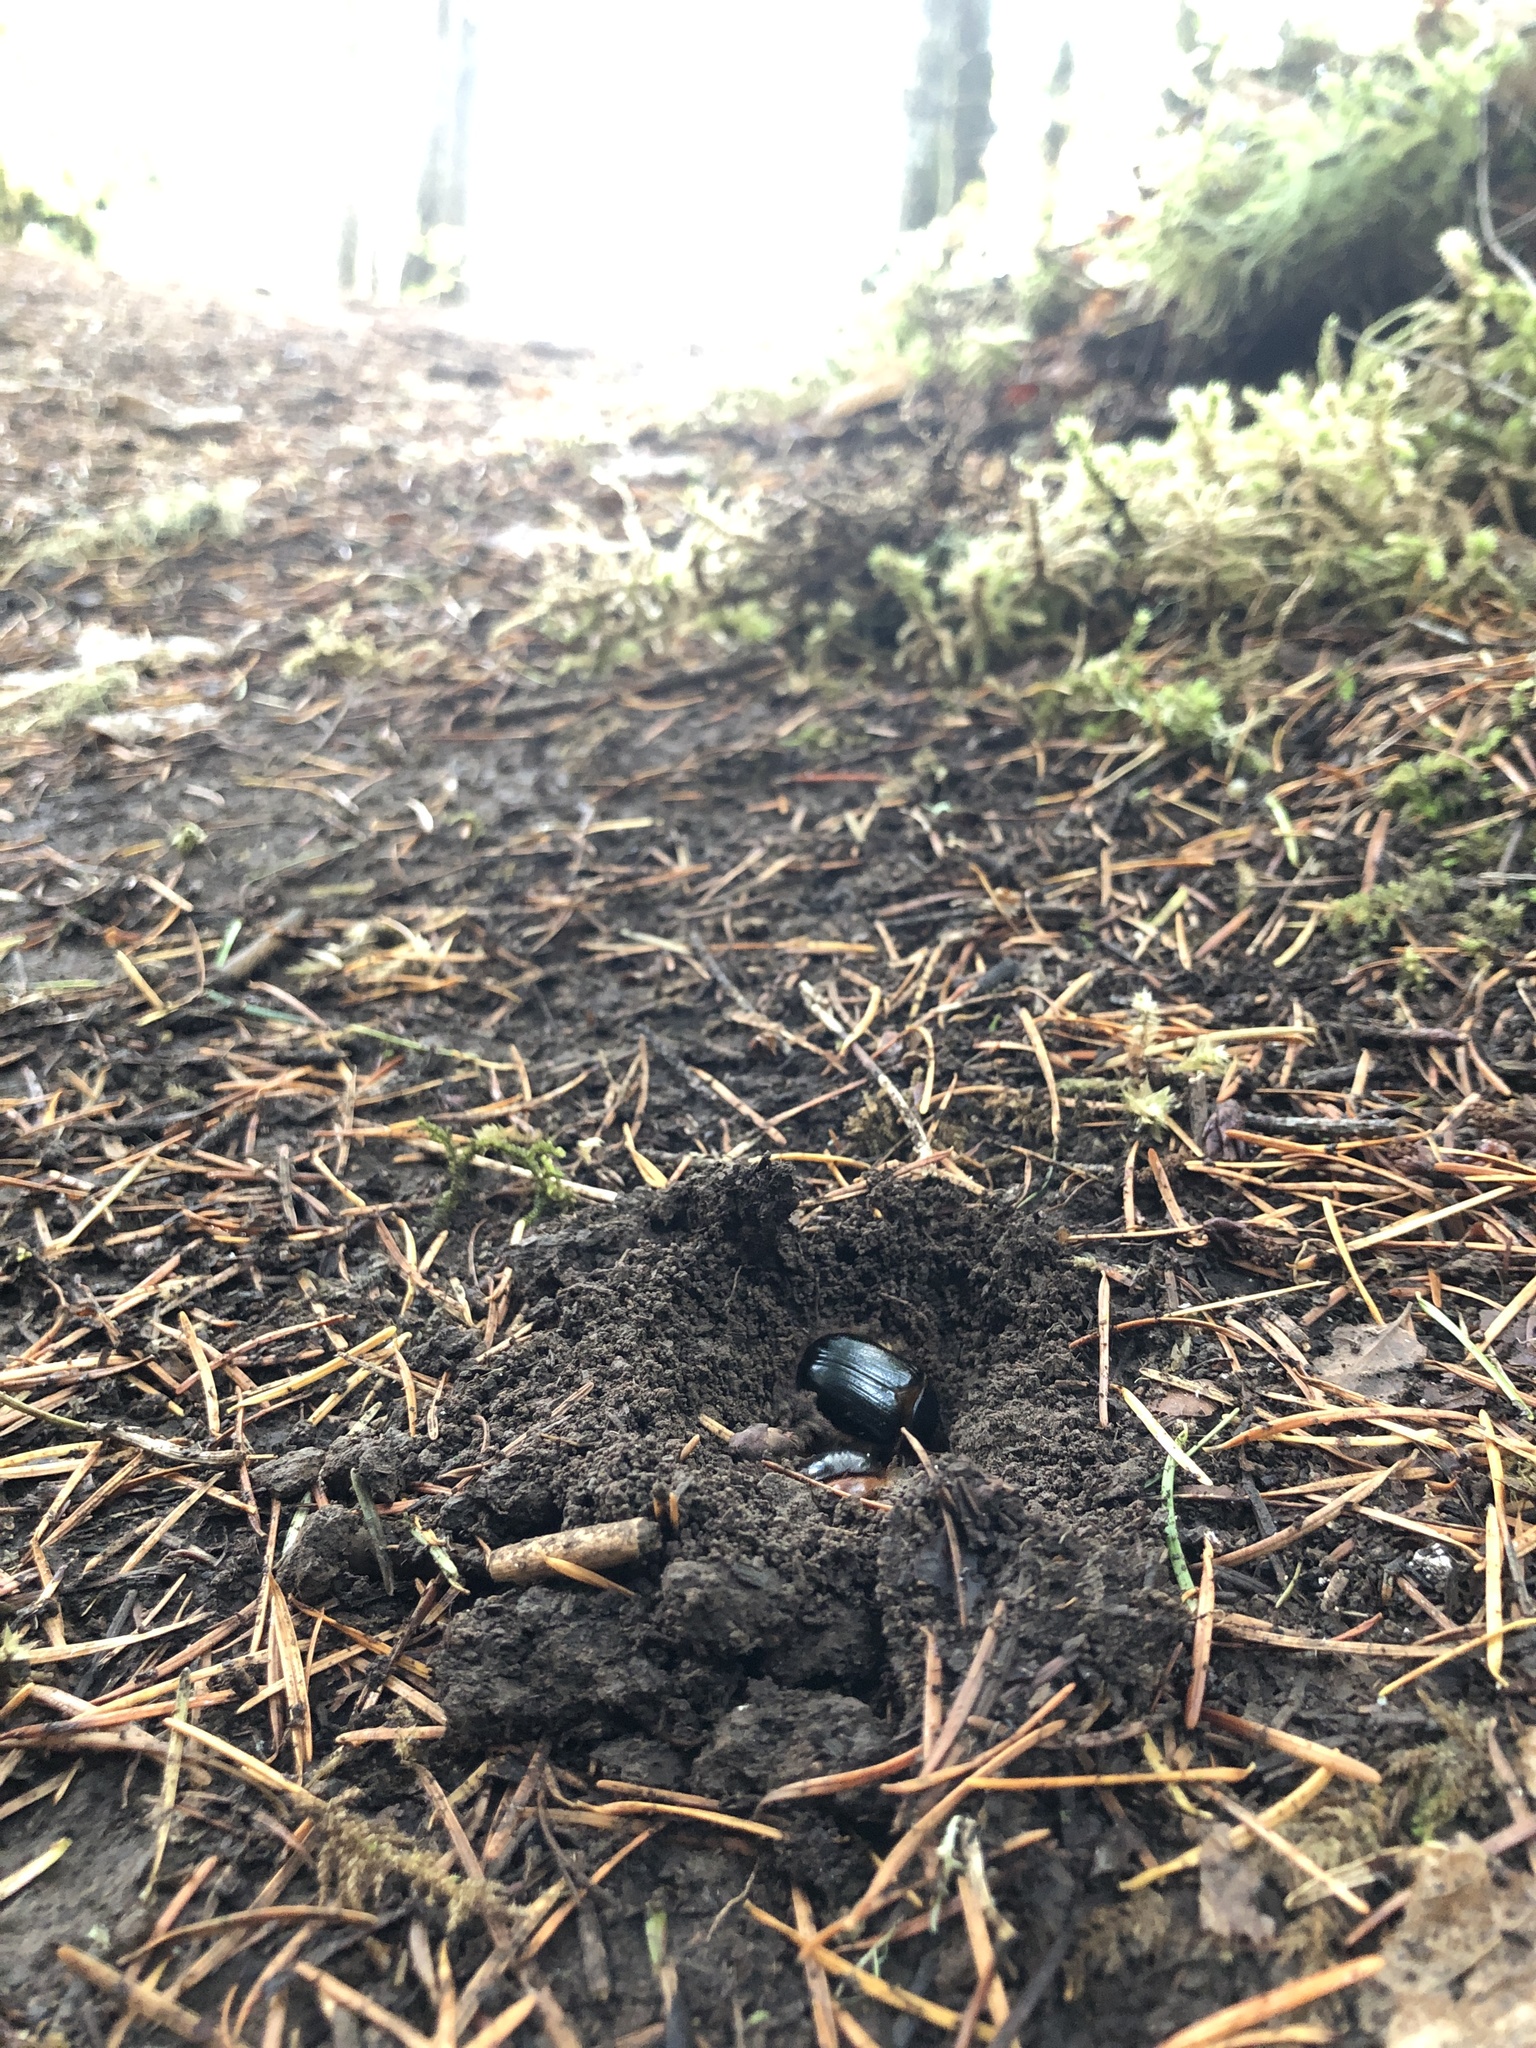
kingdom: Animalia
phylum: Arthropoda
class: Insecta
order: Coleoptera
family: Pleocomidae
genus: Pleocoma
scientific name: Pleocoma dubitabilis
